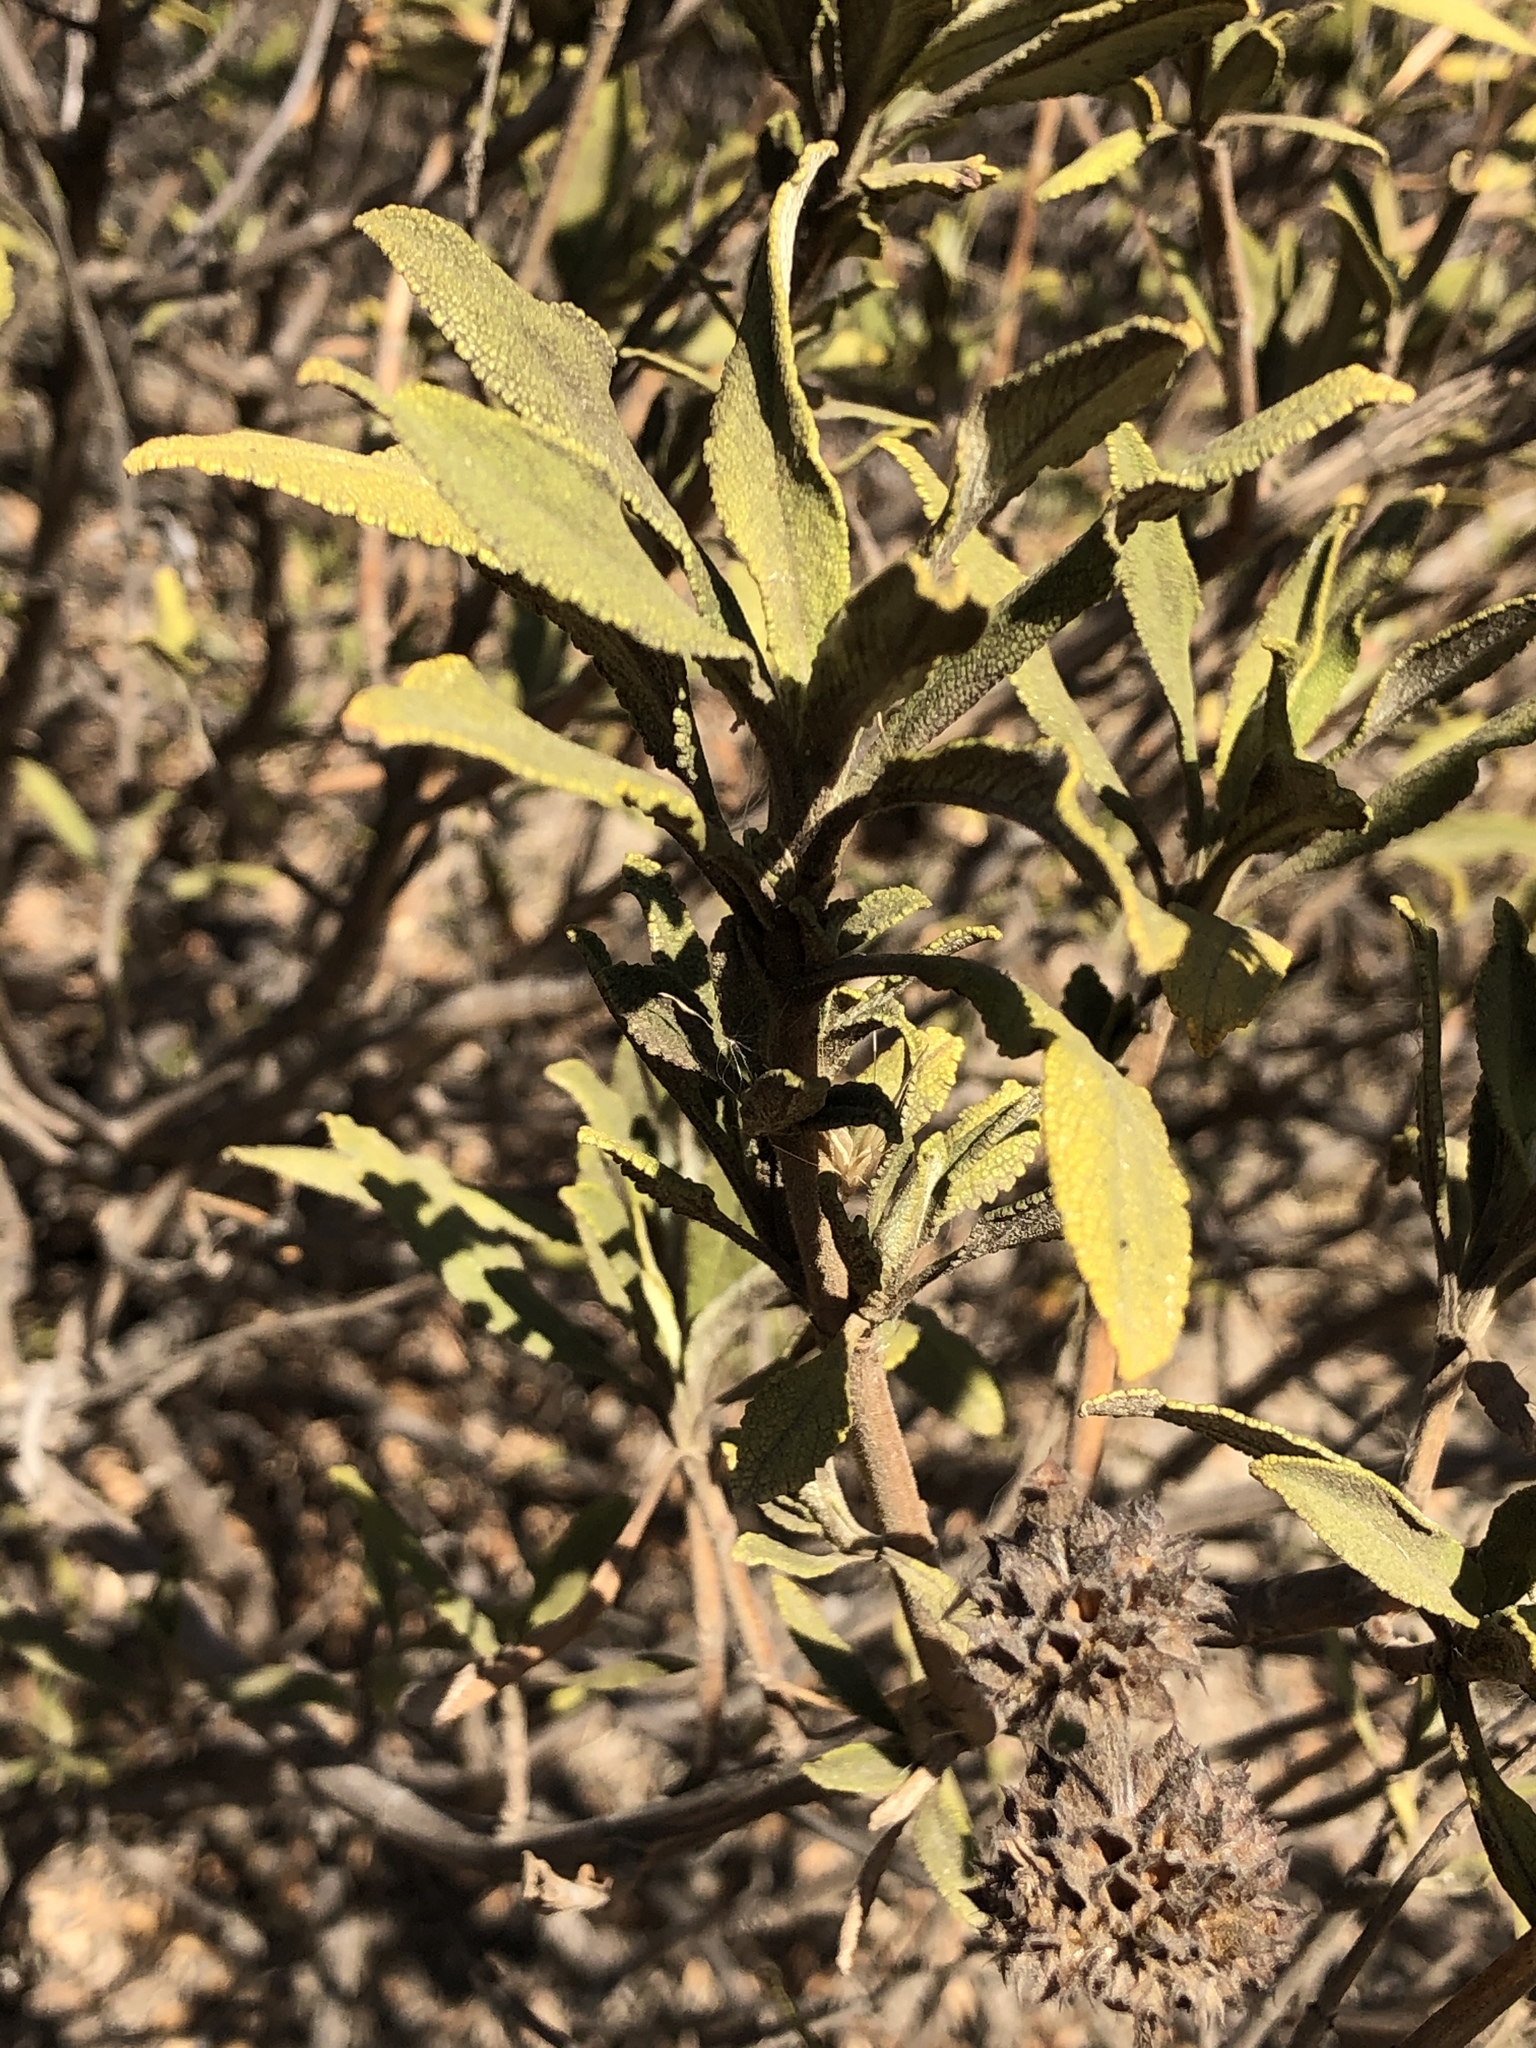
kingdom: Plantae
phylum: Tracheophyta
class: Magnoliopsida
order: Lamiales
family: Lamiaceae
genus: Salvia
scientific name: Salvia mellifera
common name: Black sage
